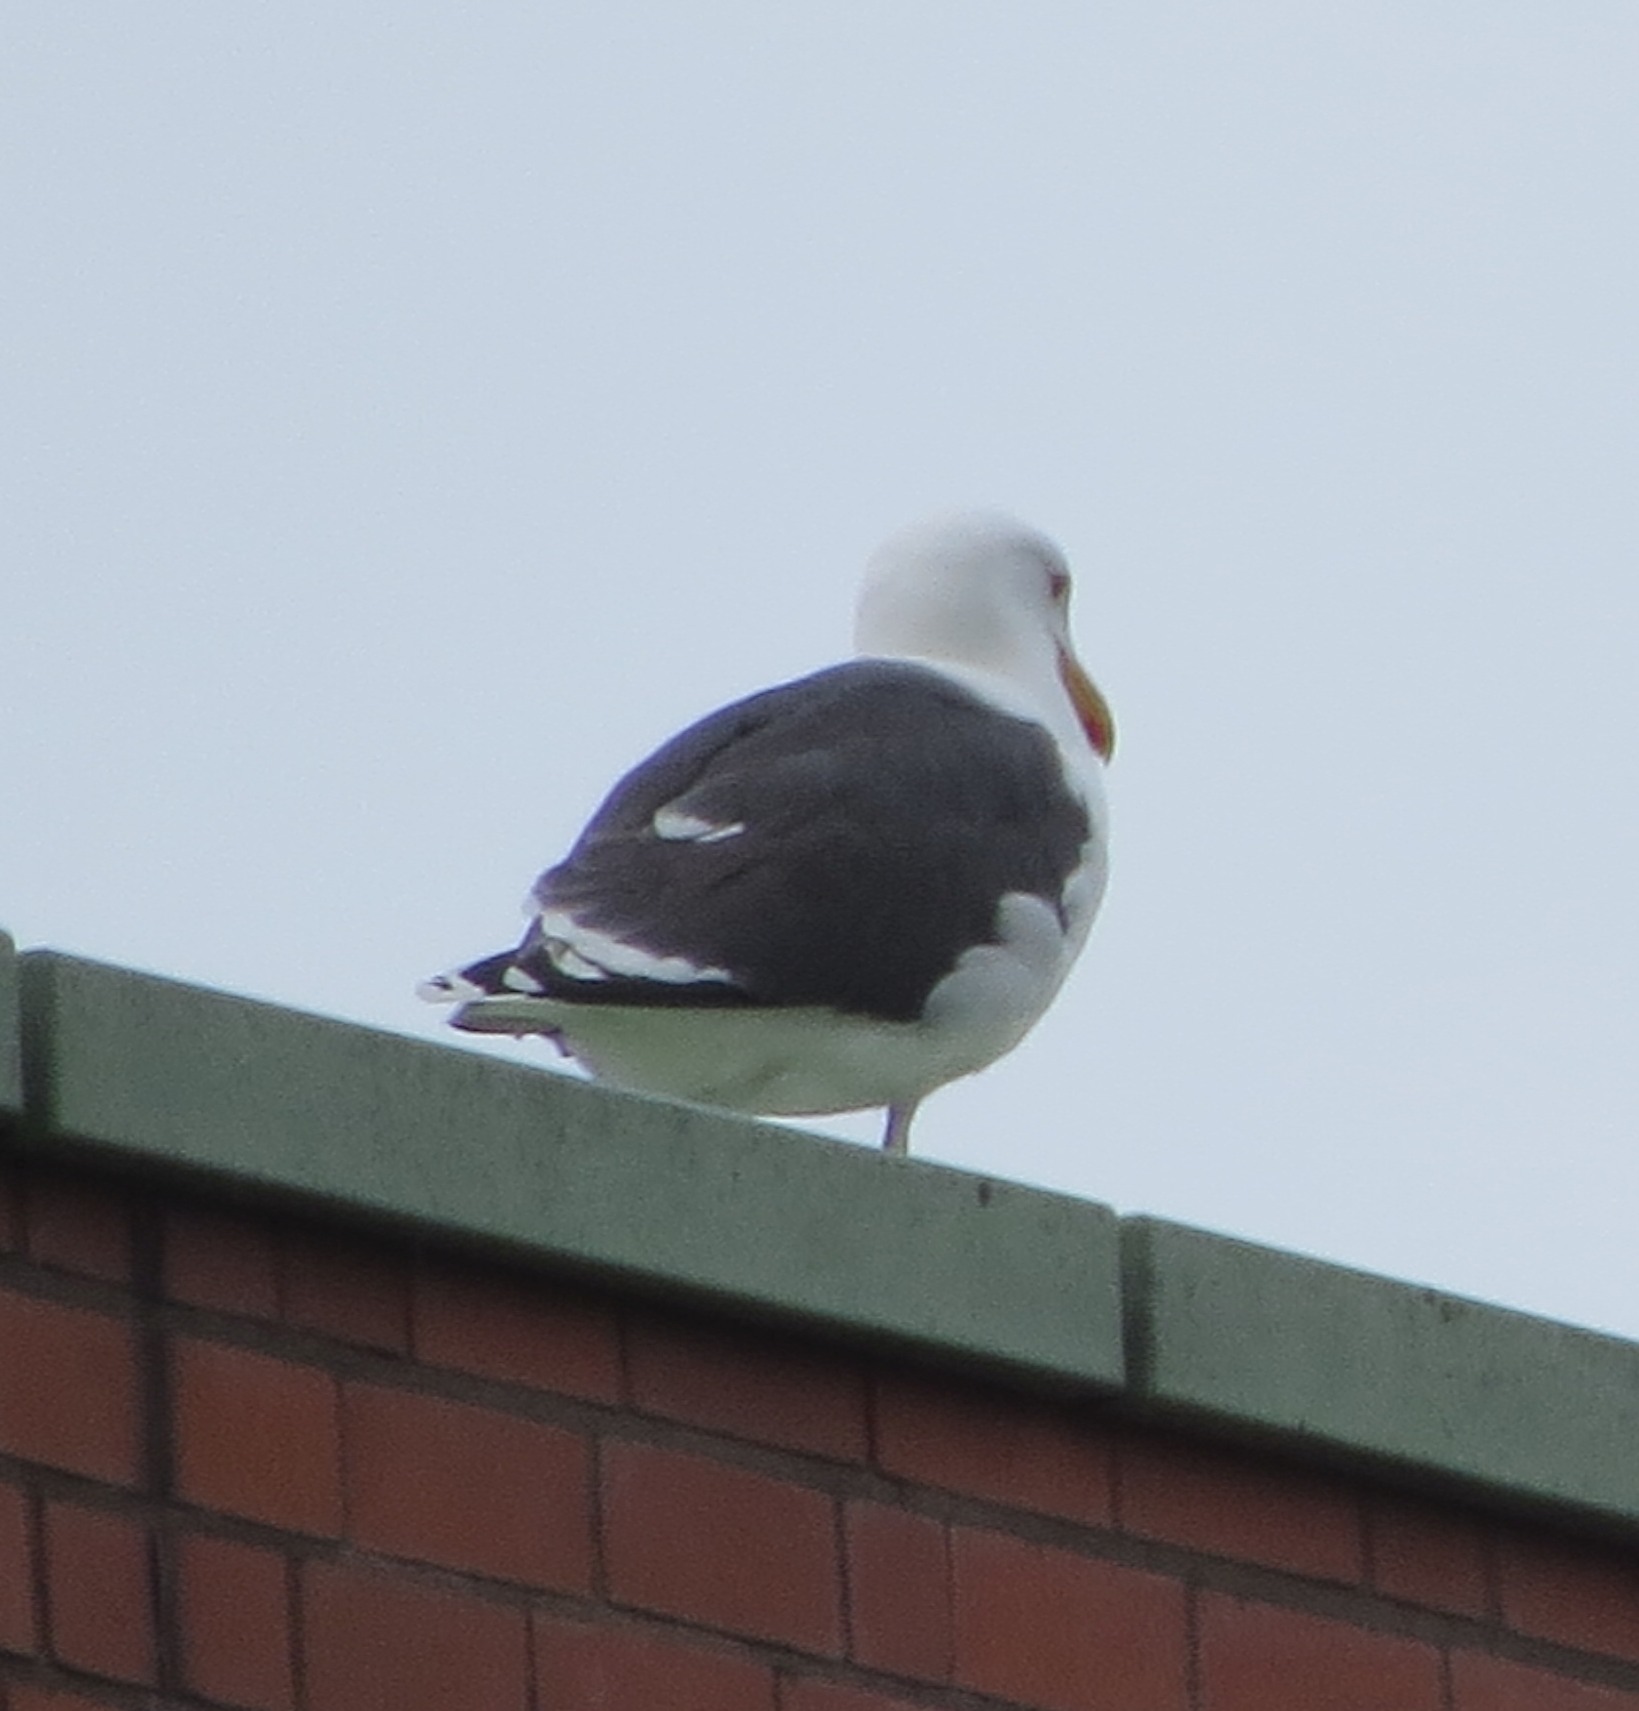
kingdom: Animalia
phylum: Chordata
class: Aves
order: Charadriiformes
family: Laridae
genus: Larus
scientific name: Larus marinus
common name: Great black-backed gull
